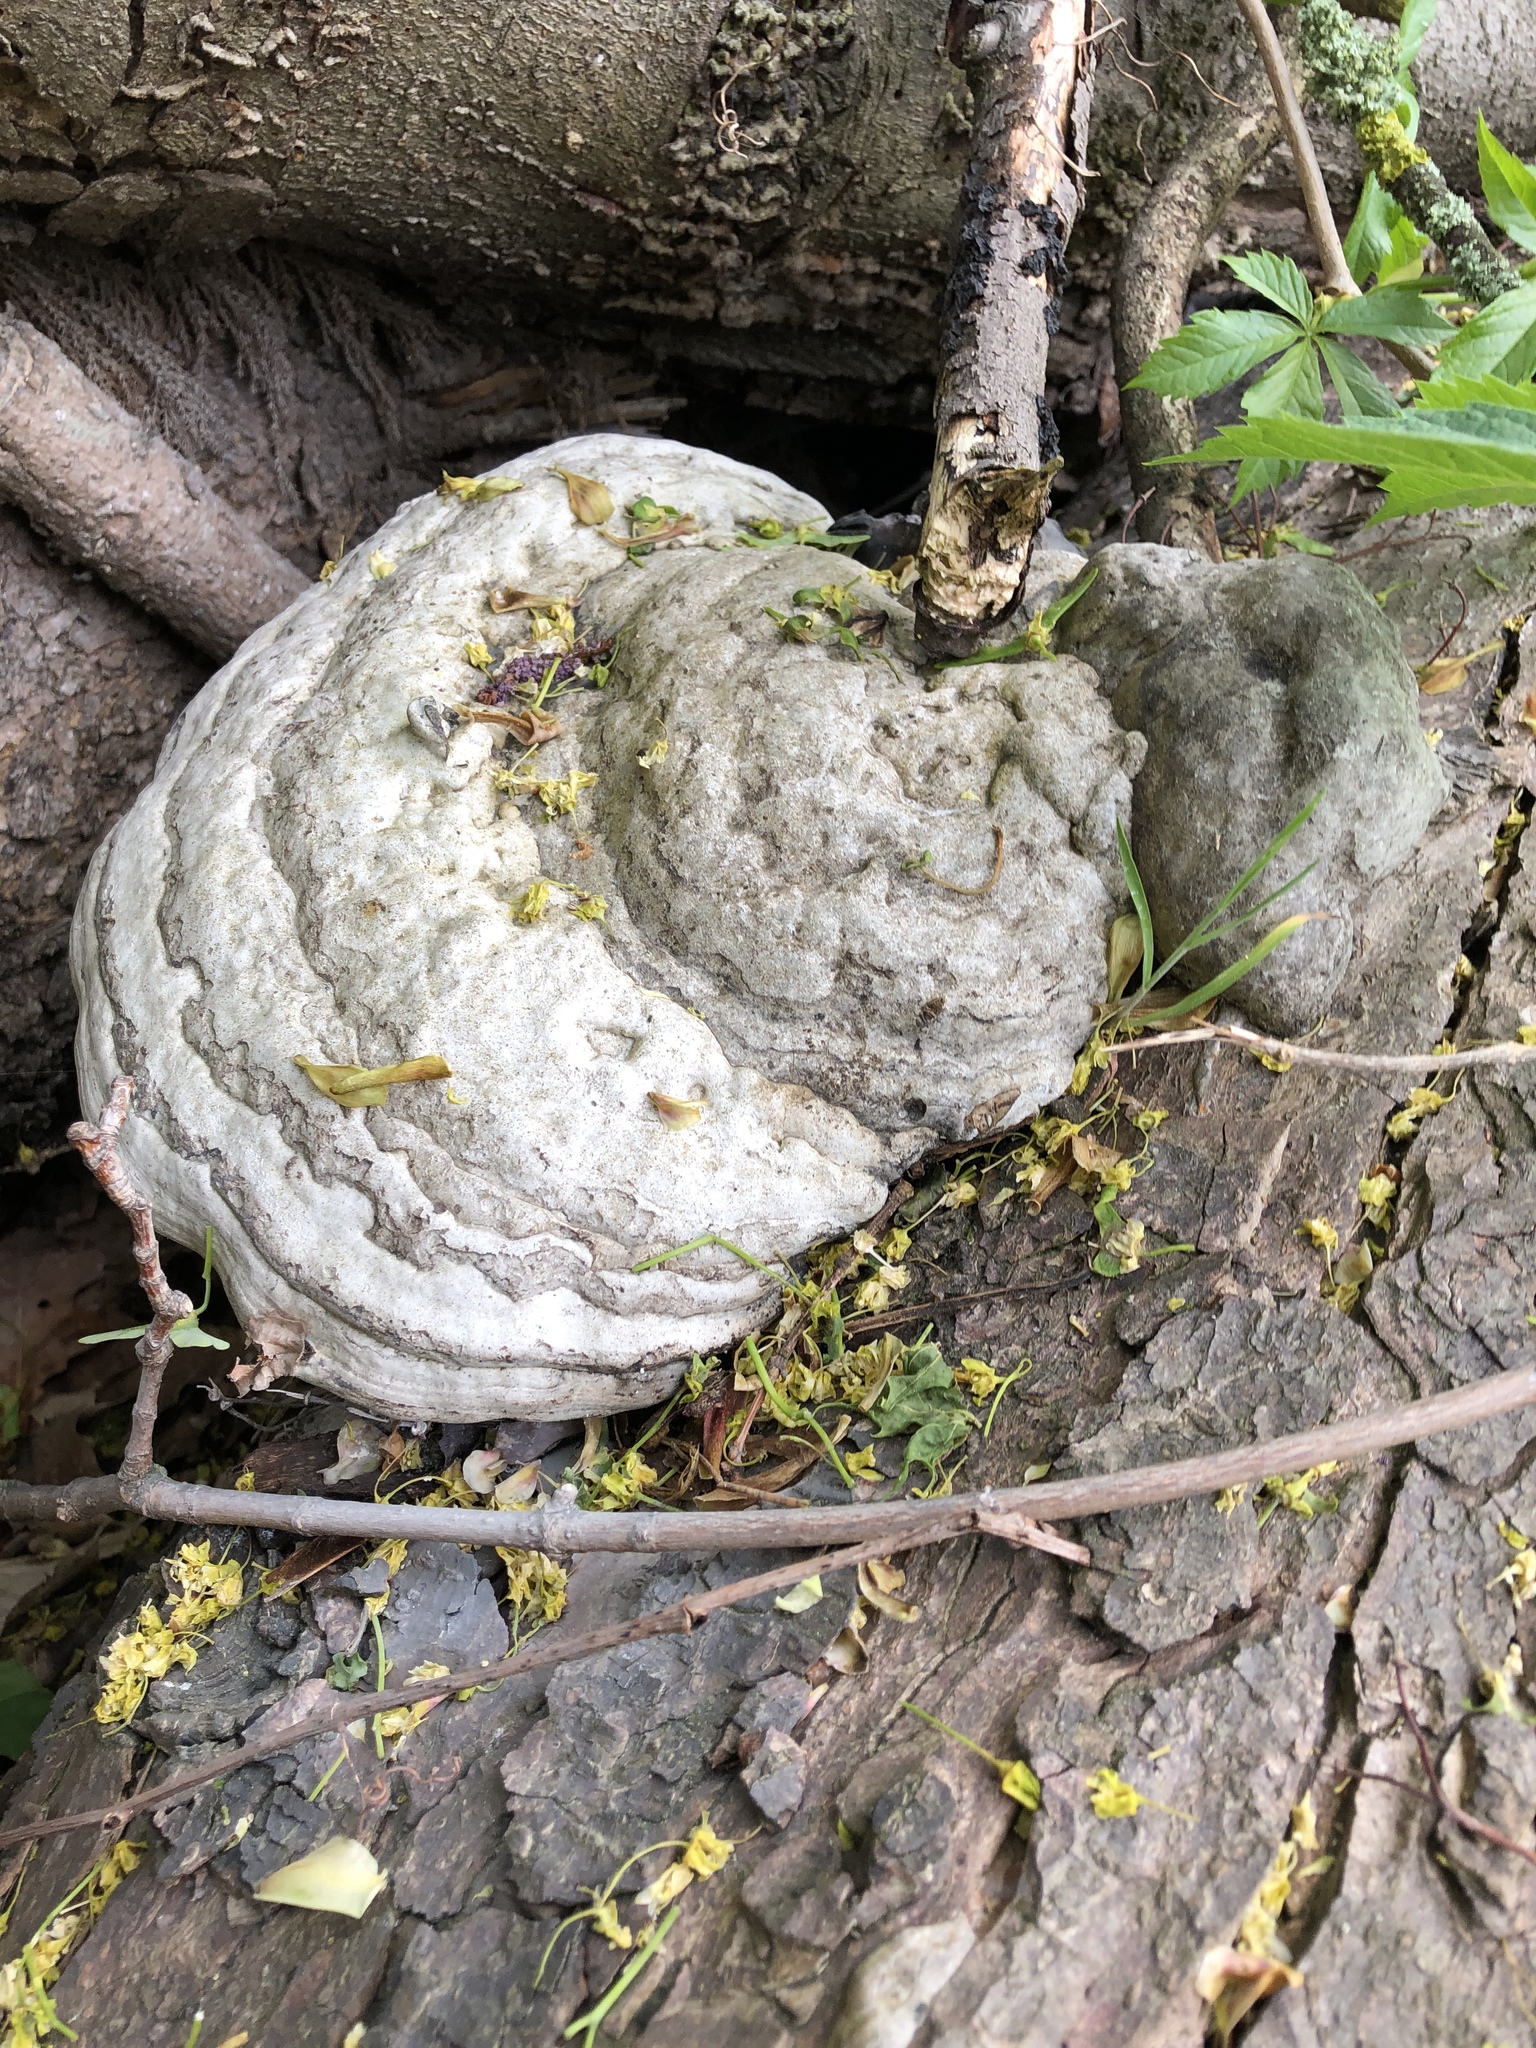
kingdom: Fungi
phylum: Basidiomycota
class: Agaricomycetes
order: Polyporales
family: Polyporaceae
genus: Fomes
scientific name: Fomes fomentarius
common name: Hoof fungus
